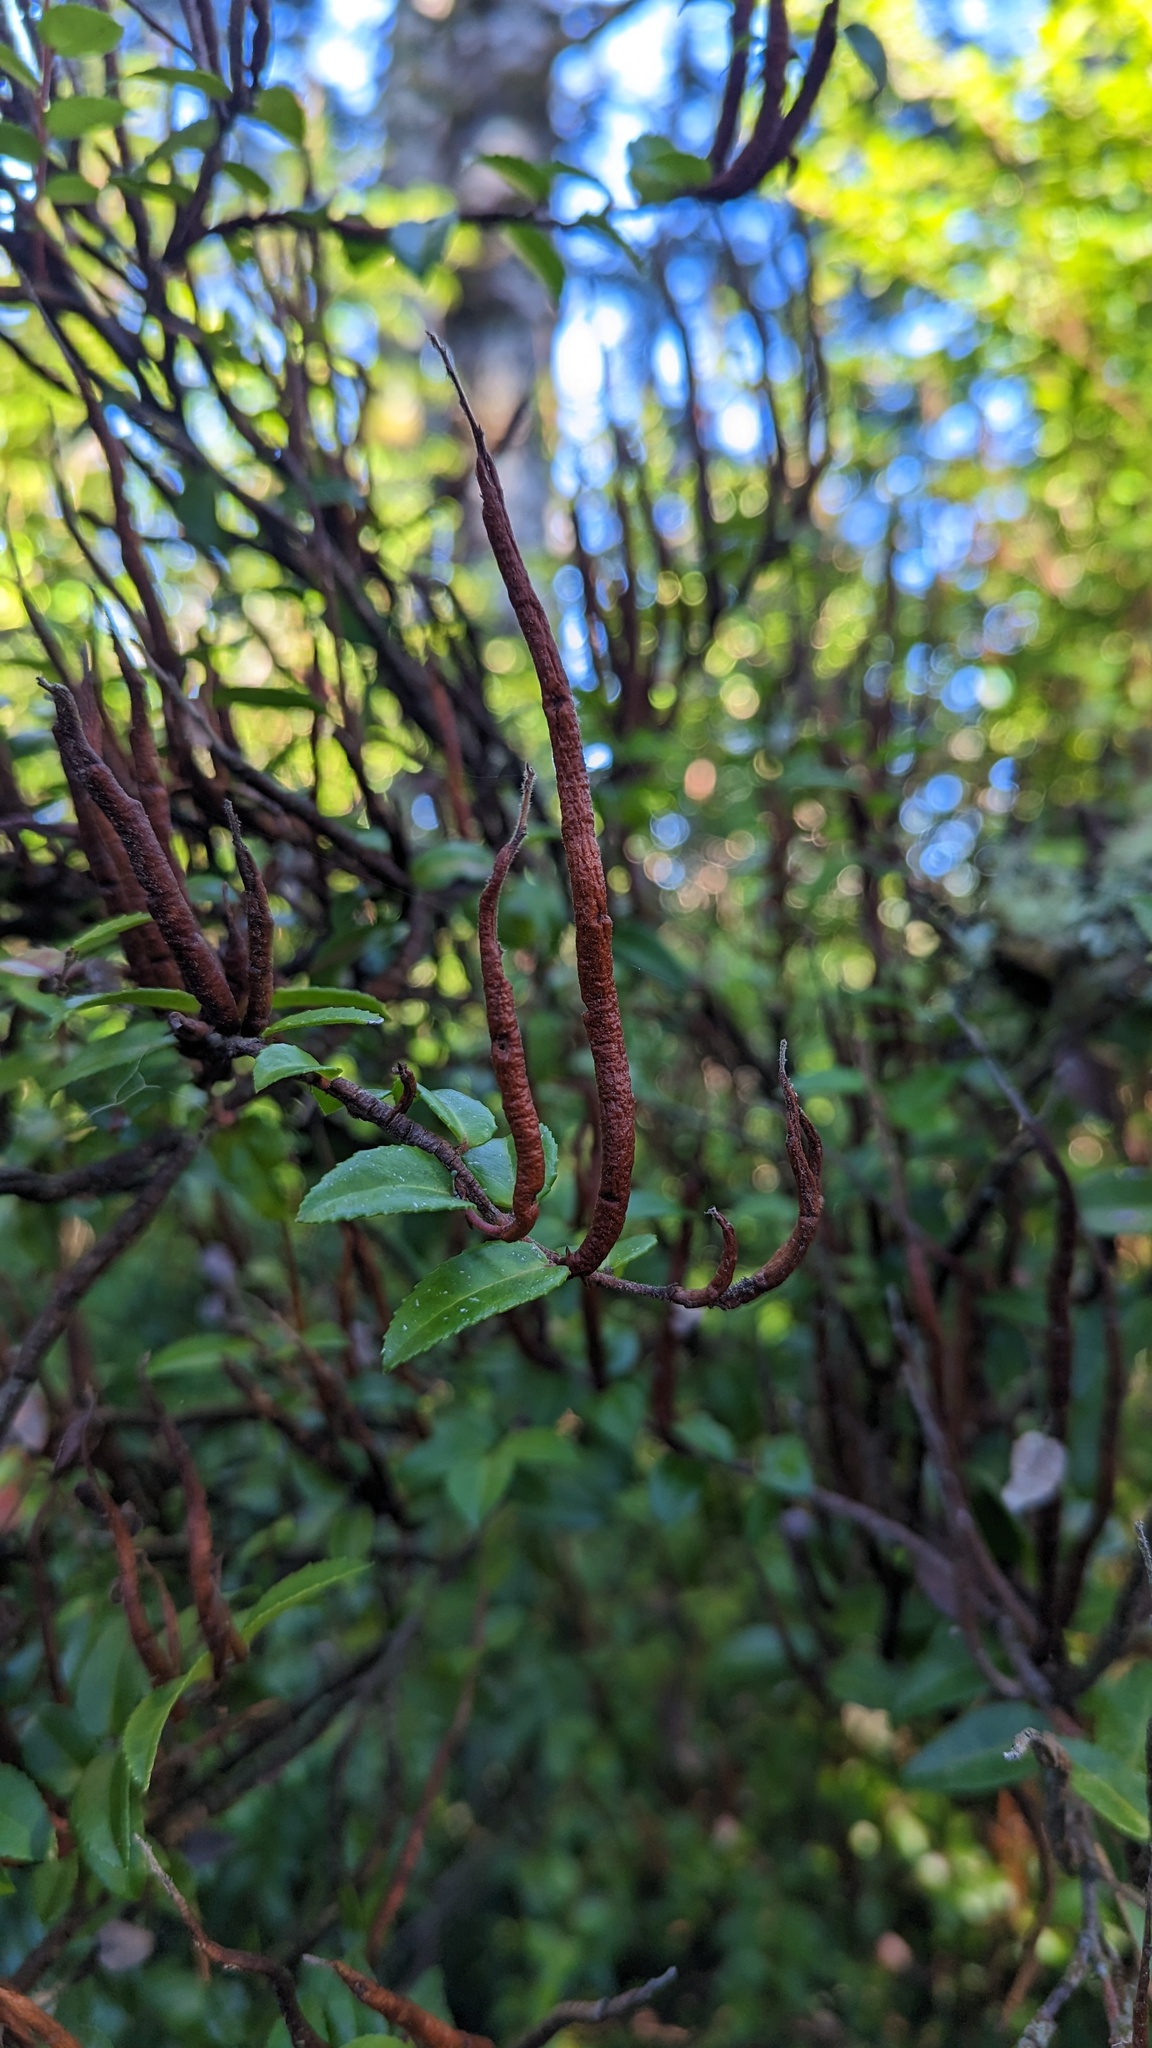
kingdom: Fungi
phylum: Basidiomycota
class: Pucciniomycetes
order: Pucciniales
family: Pucciniastraceae
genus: Calyptospora
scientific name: Calyptospora
